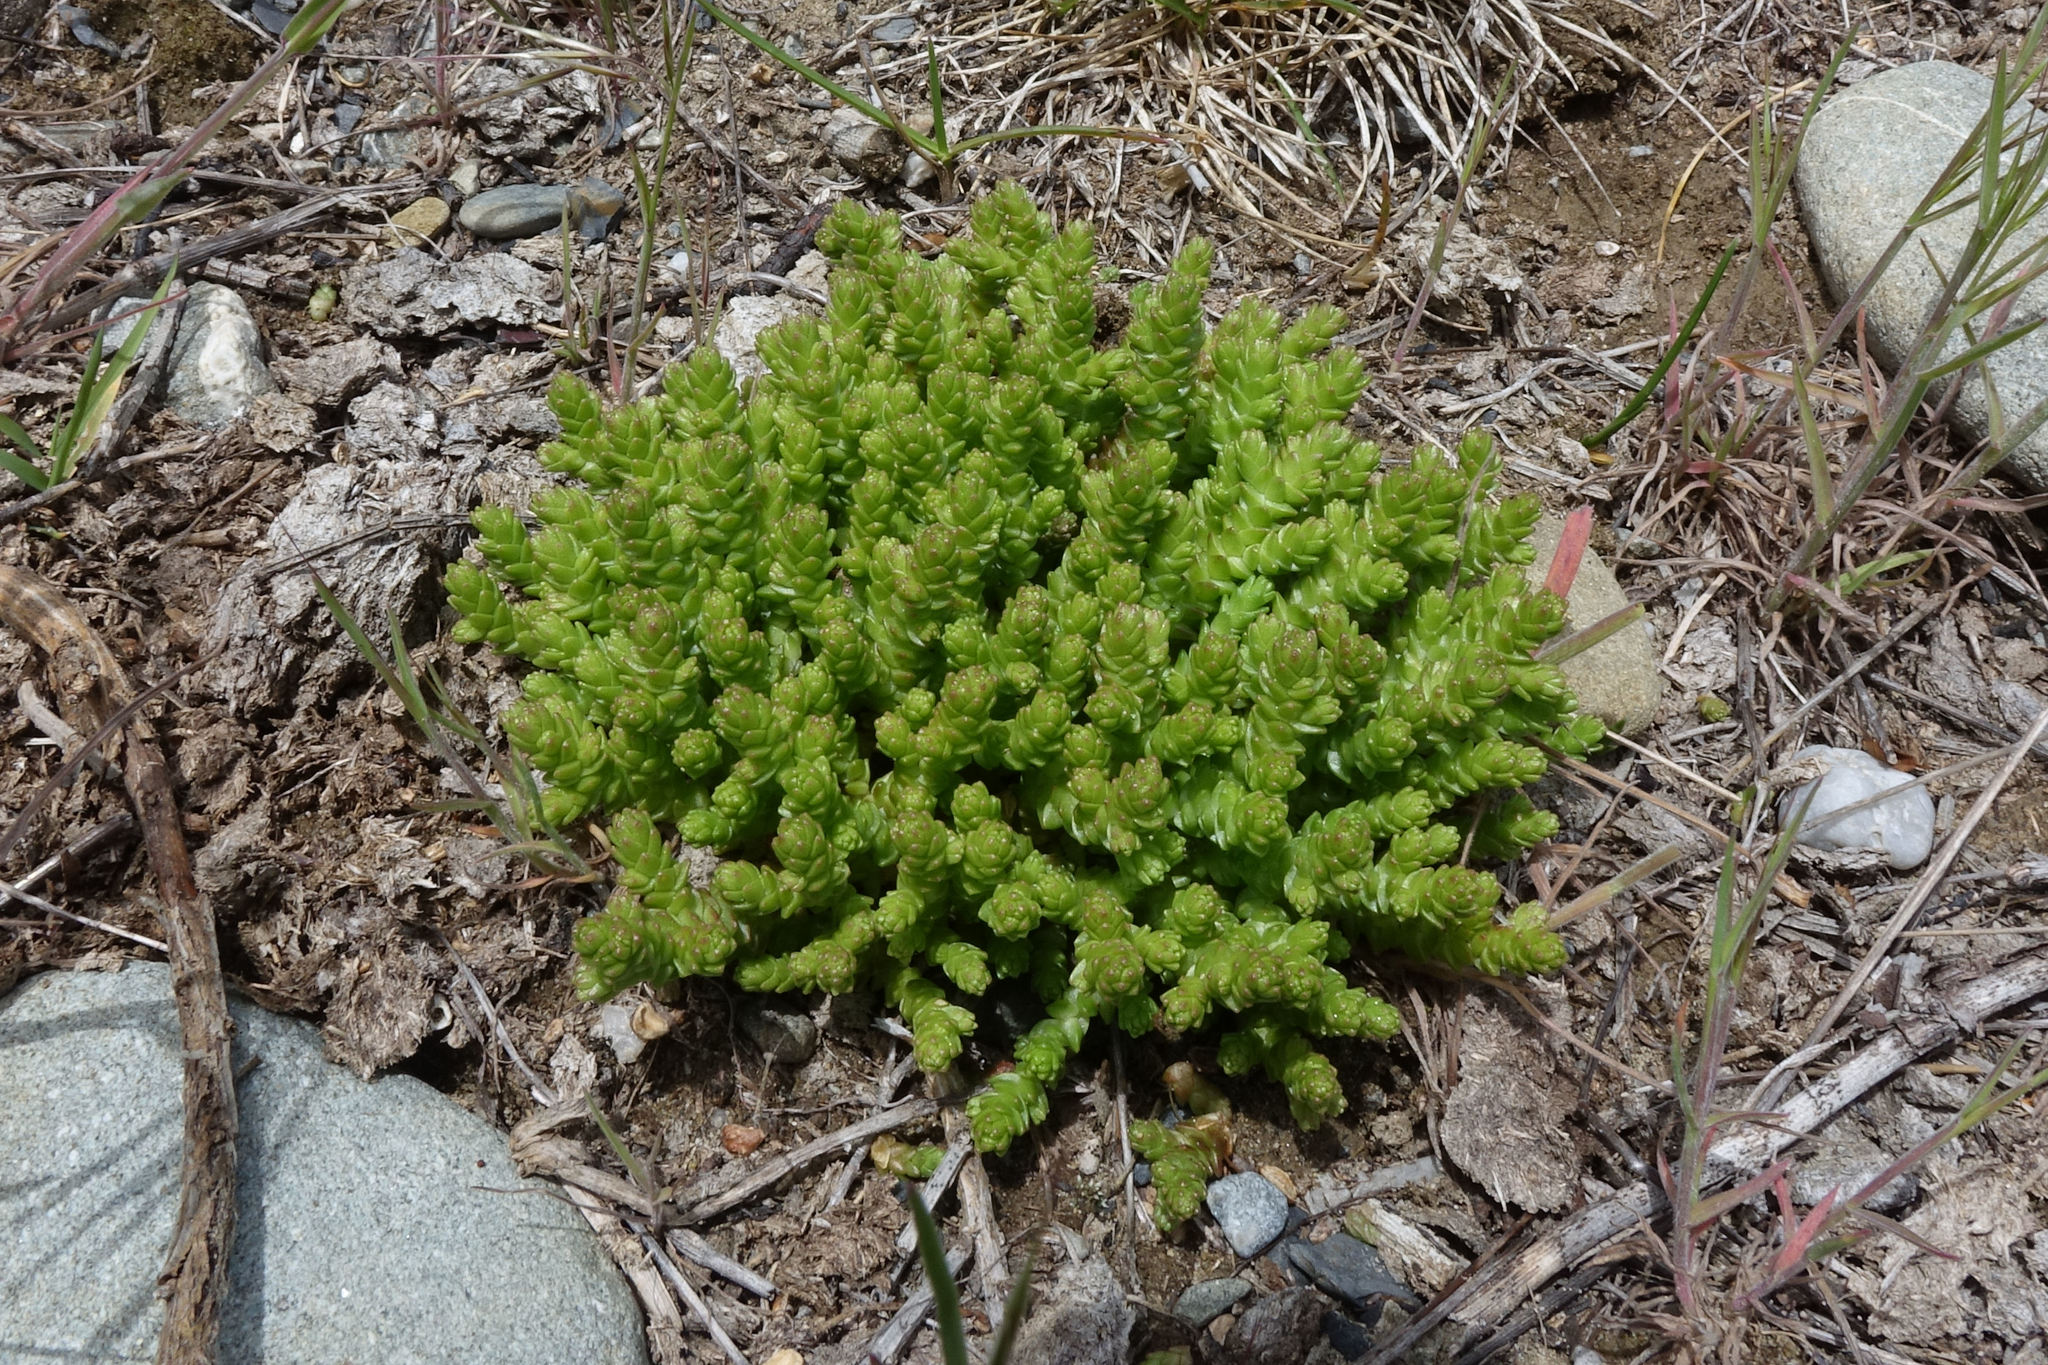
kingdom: Plantae
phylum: Tracheophyta
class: Magnoliopsida
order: Saxifragales
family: Crassulaceae
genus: Sedum
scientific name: Sedum acre
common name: Biting stonecrop
